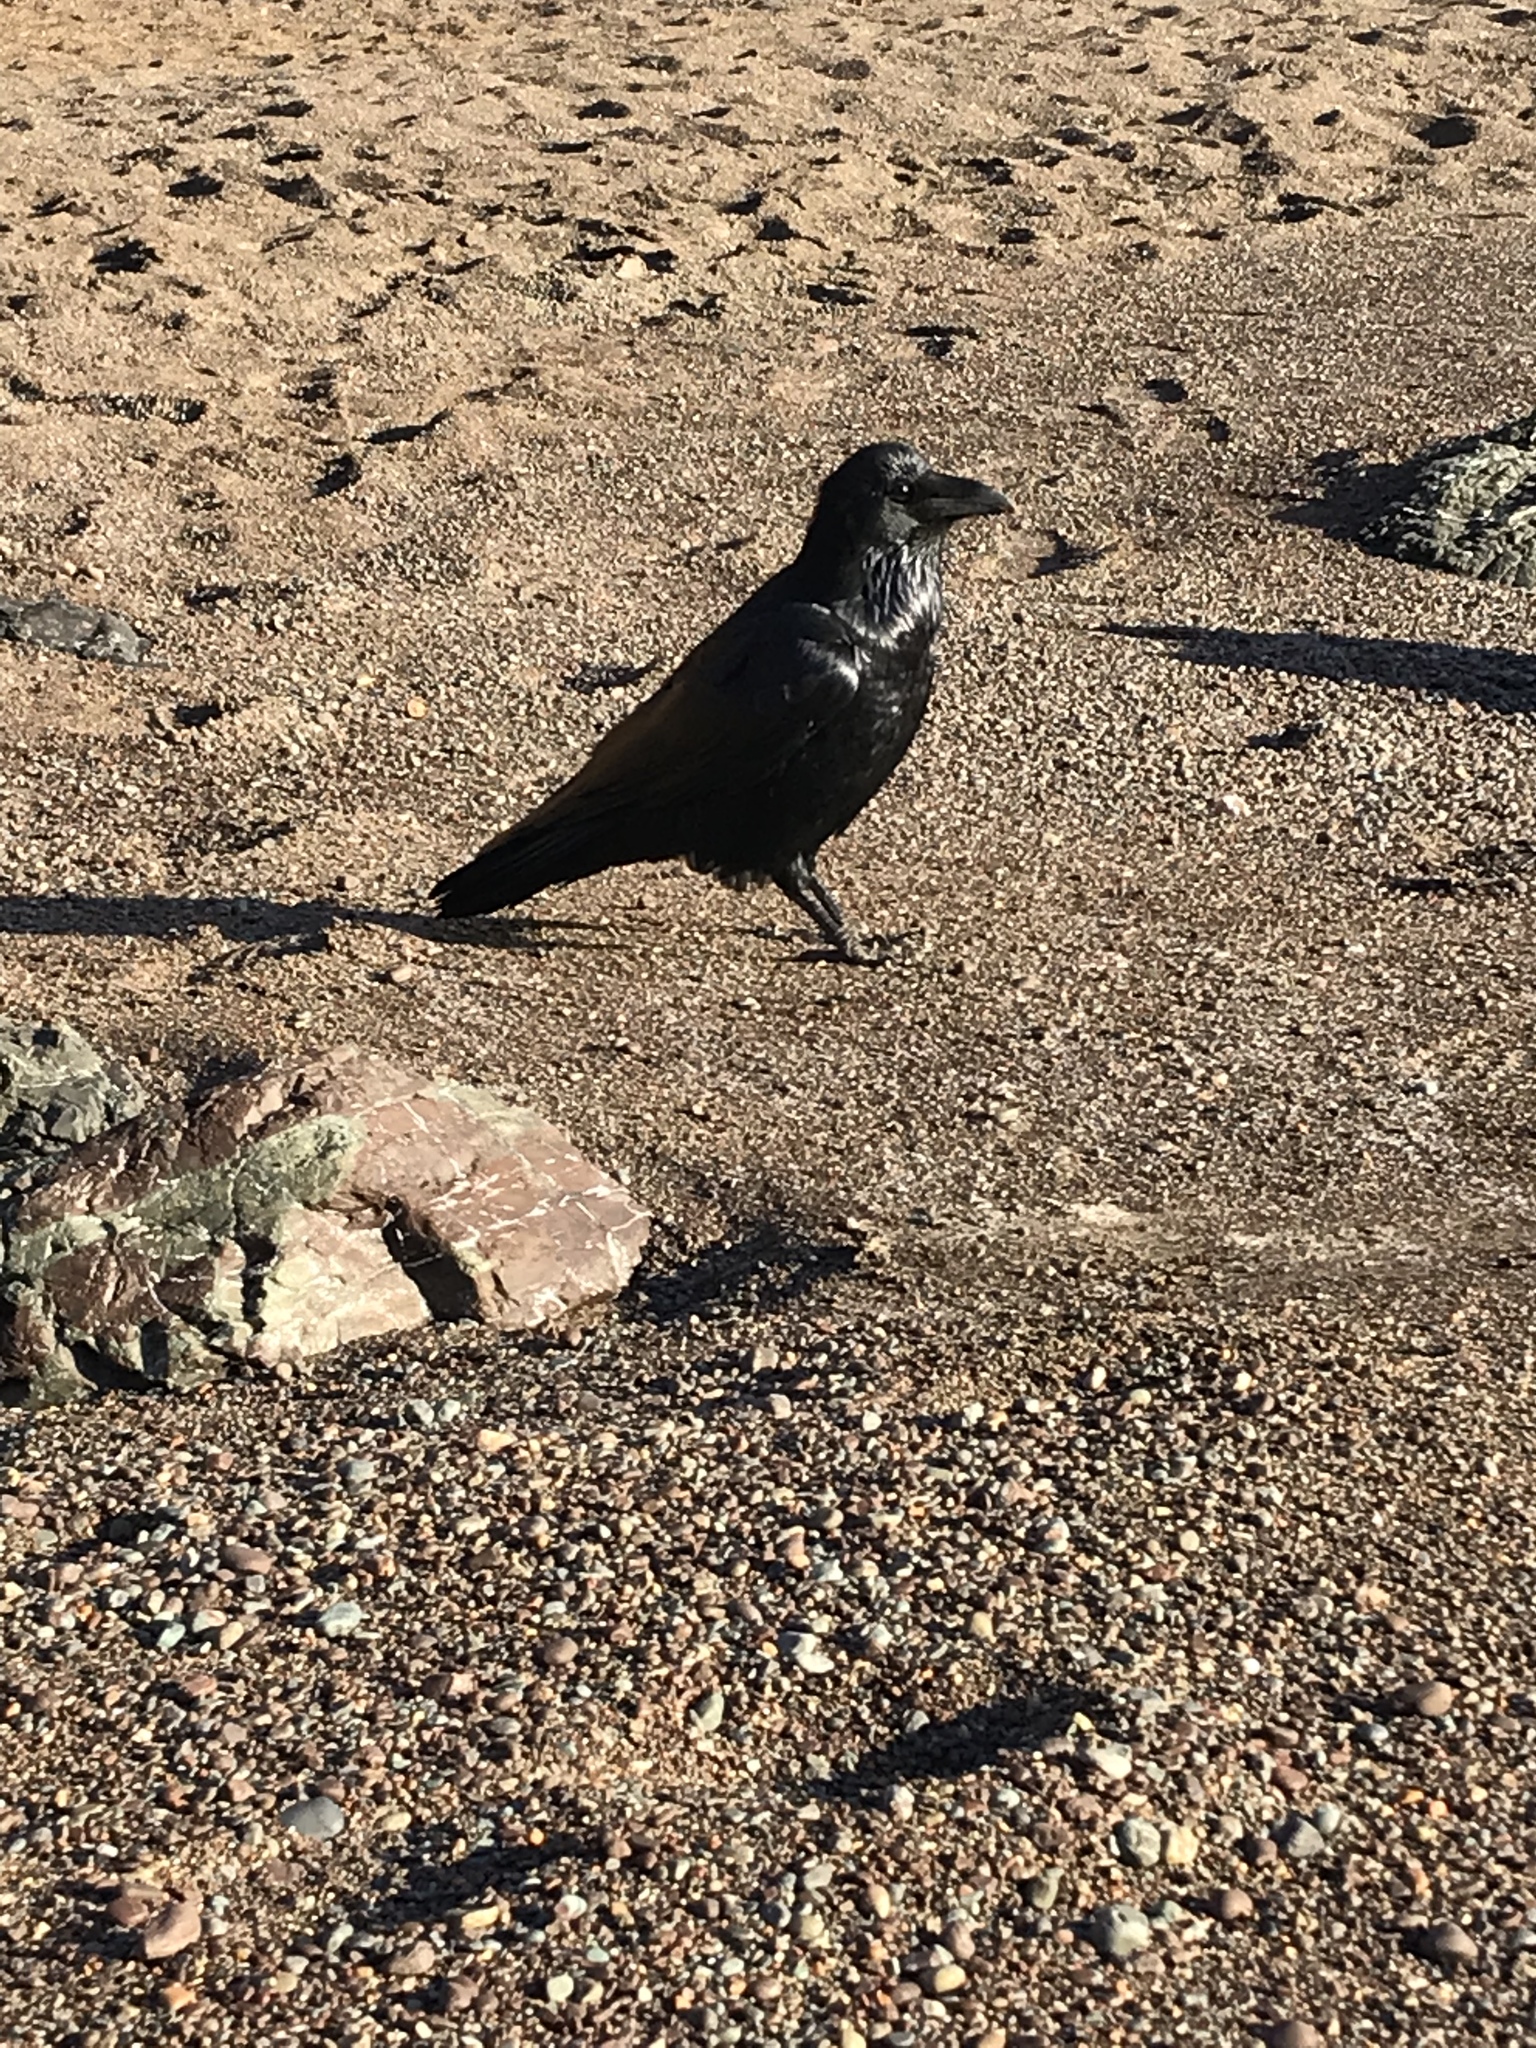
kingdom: Animalia
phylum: Chordata
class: Aves
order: Passeriformes
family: Corvidae
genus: Corvus
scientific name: Corvus corax
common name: Common raven
